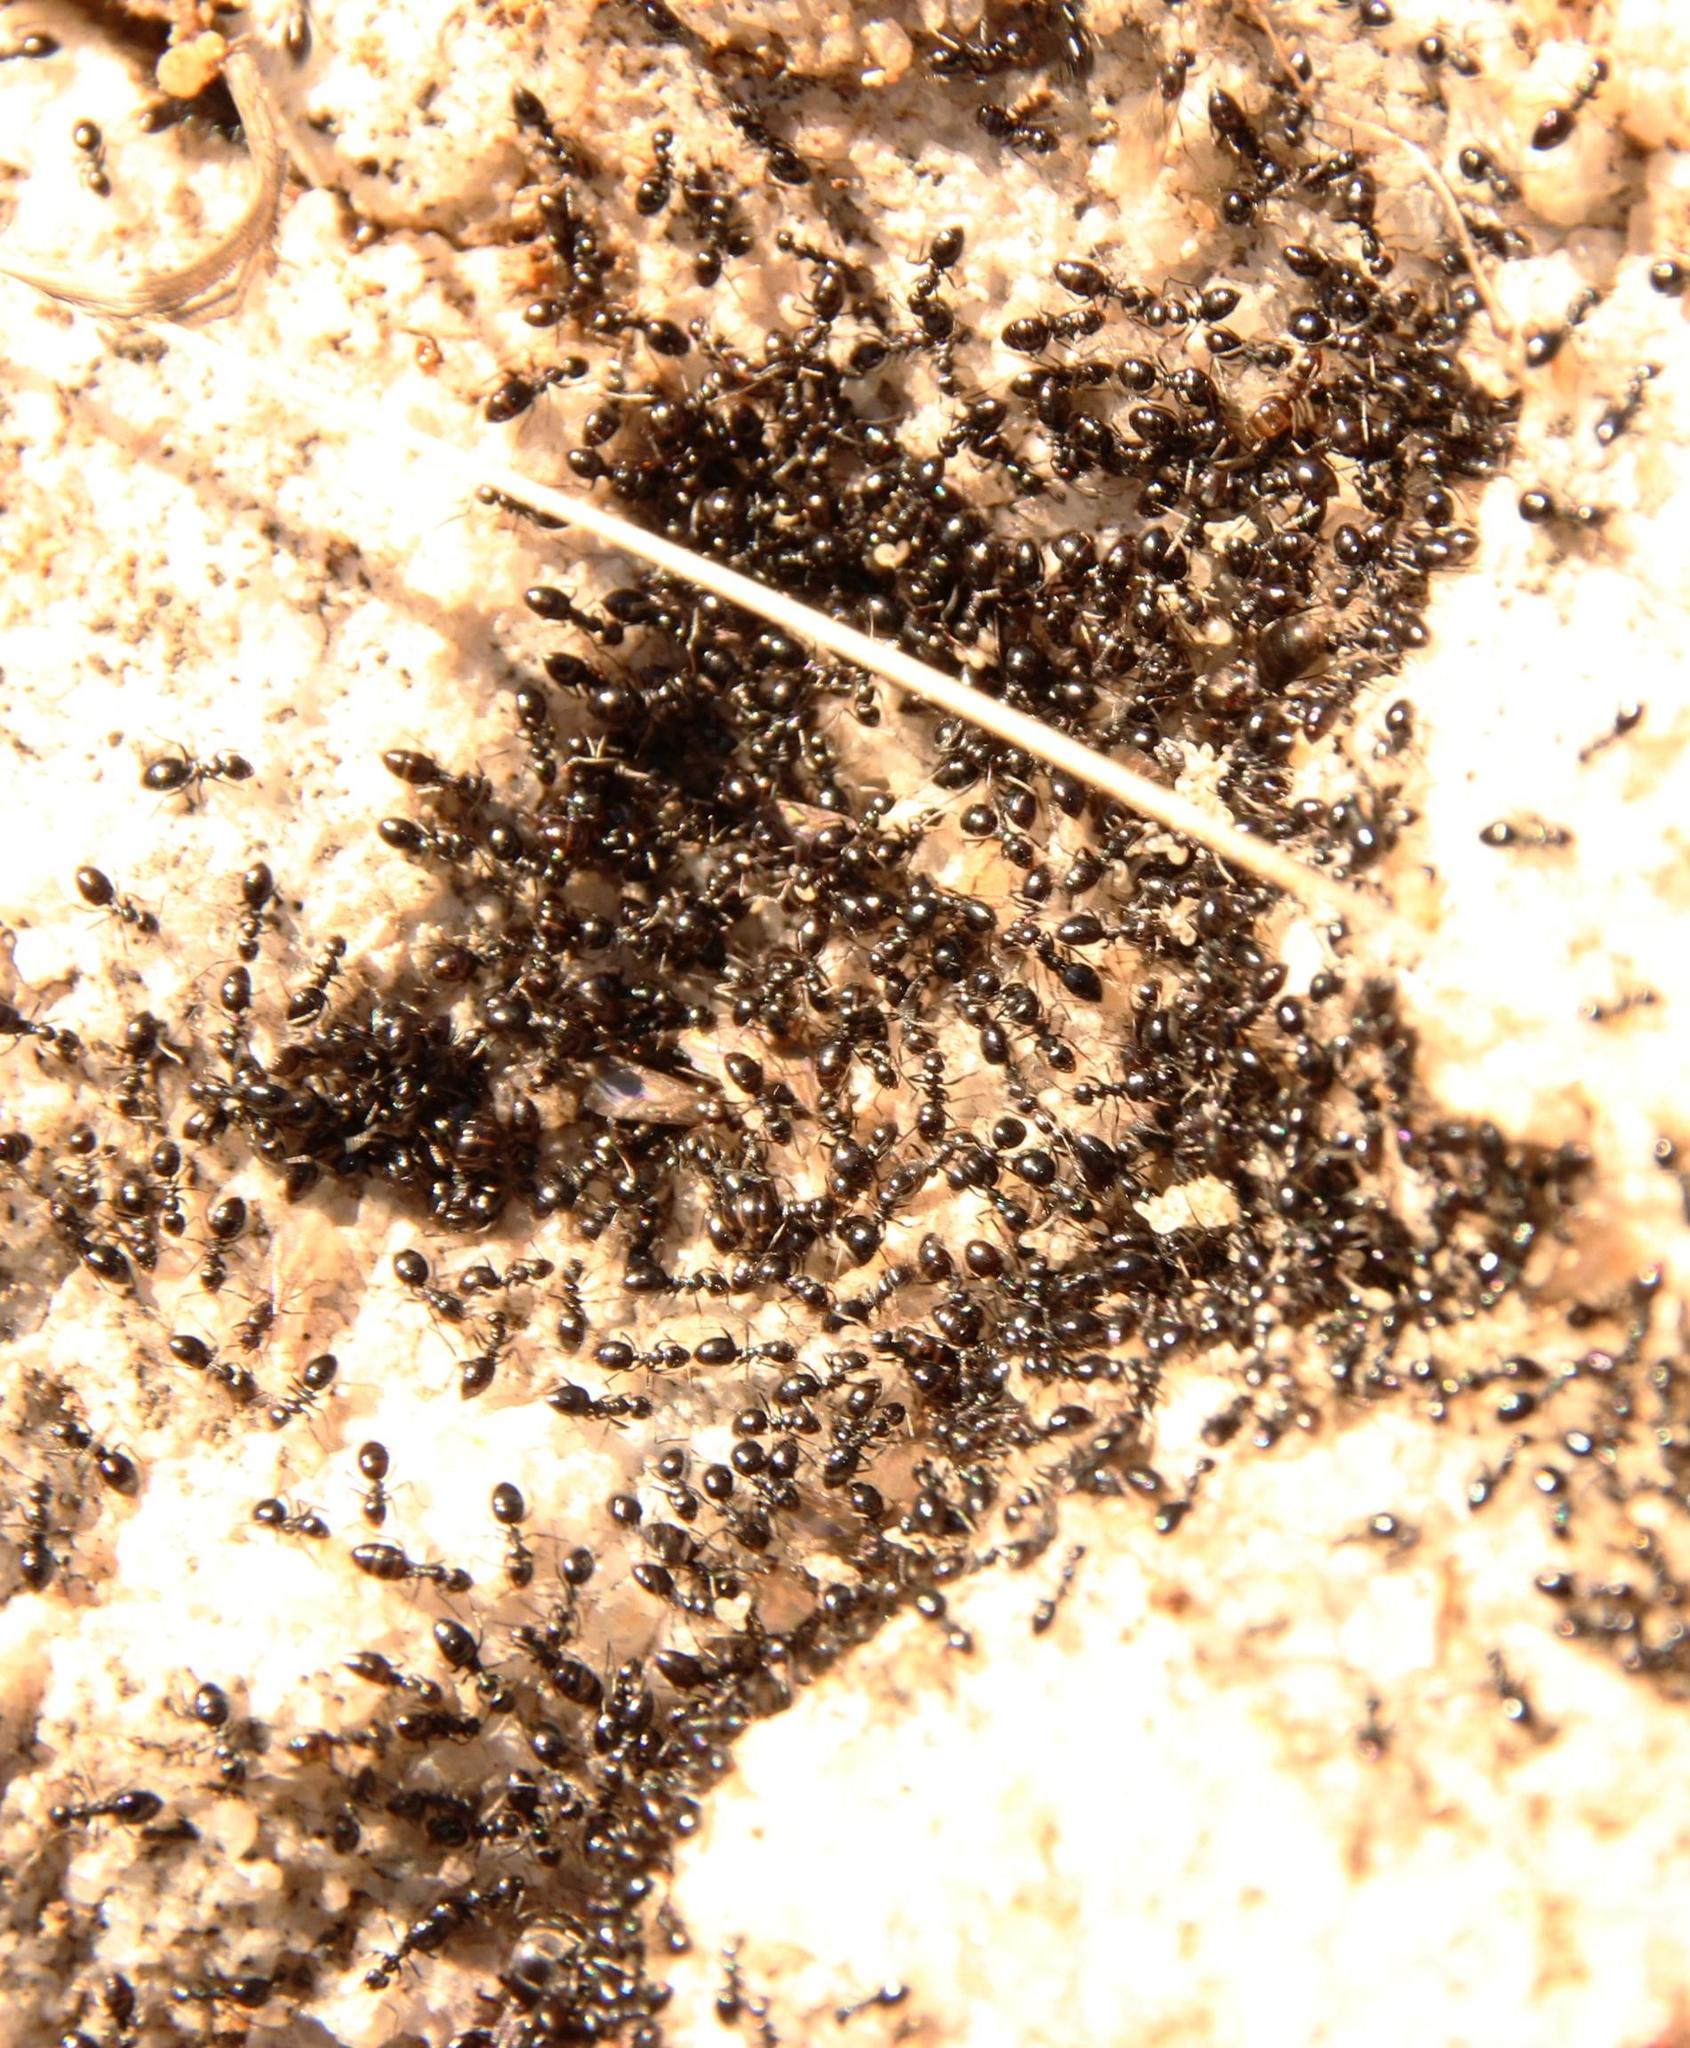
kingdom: Animalia
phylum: Arthropoda
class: Insecta
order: Hymenoptera
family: Formicidae
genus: Lepisiota
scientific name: Lepisiota capensis
